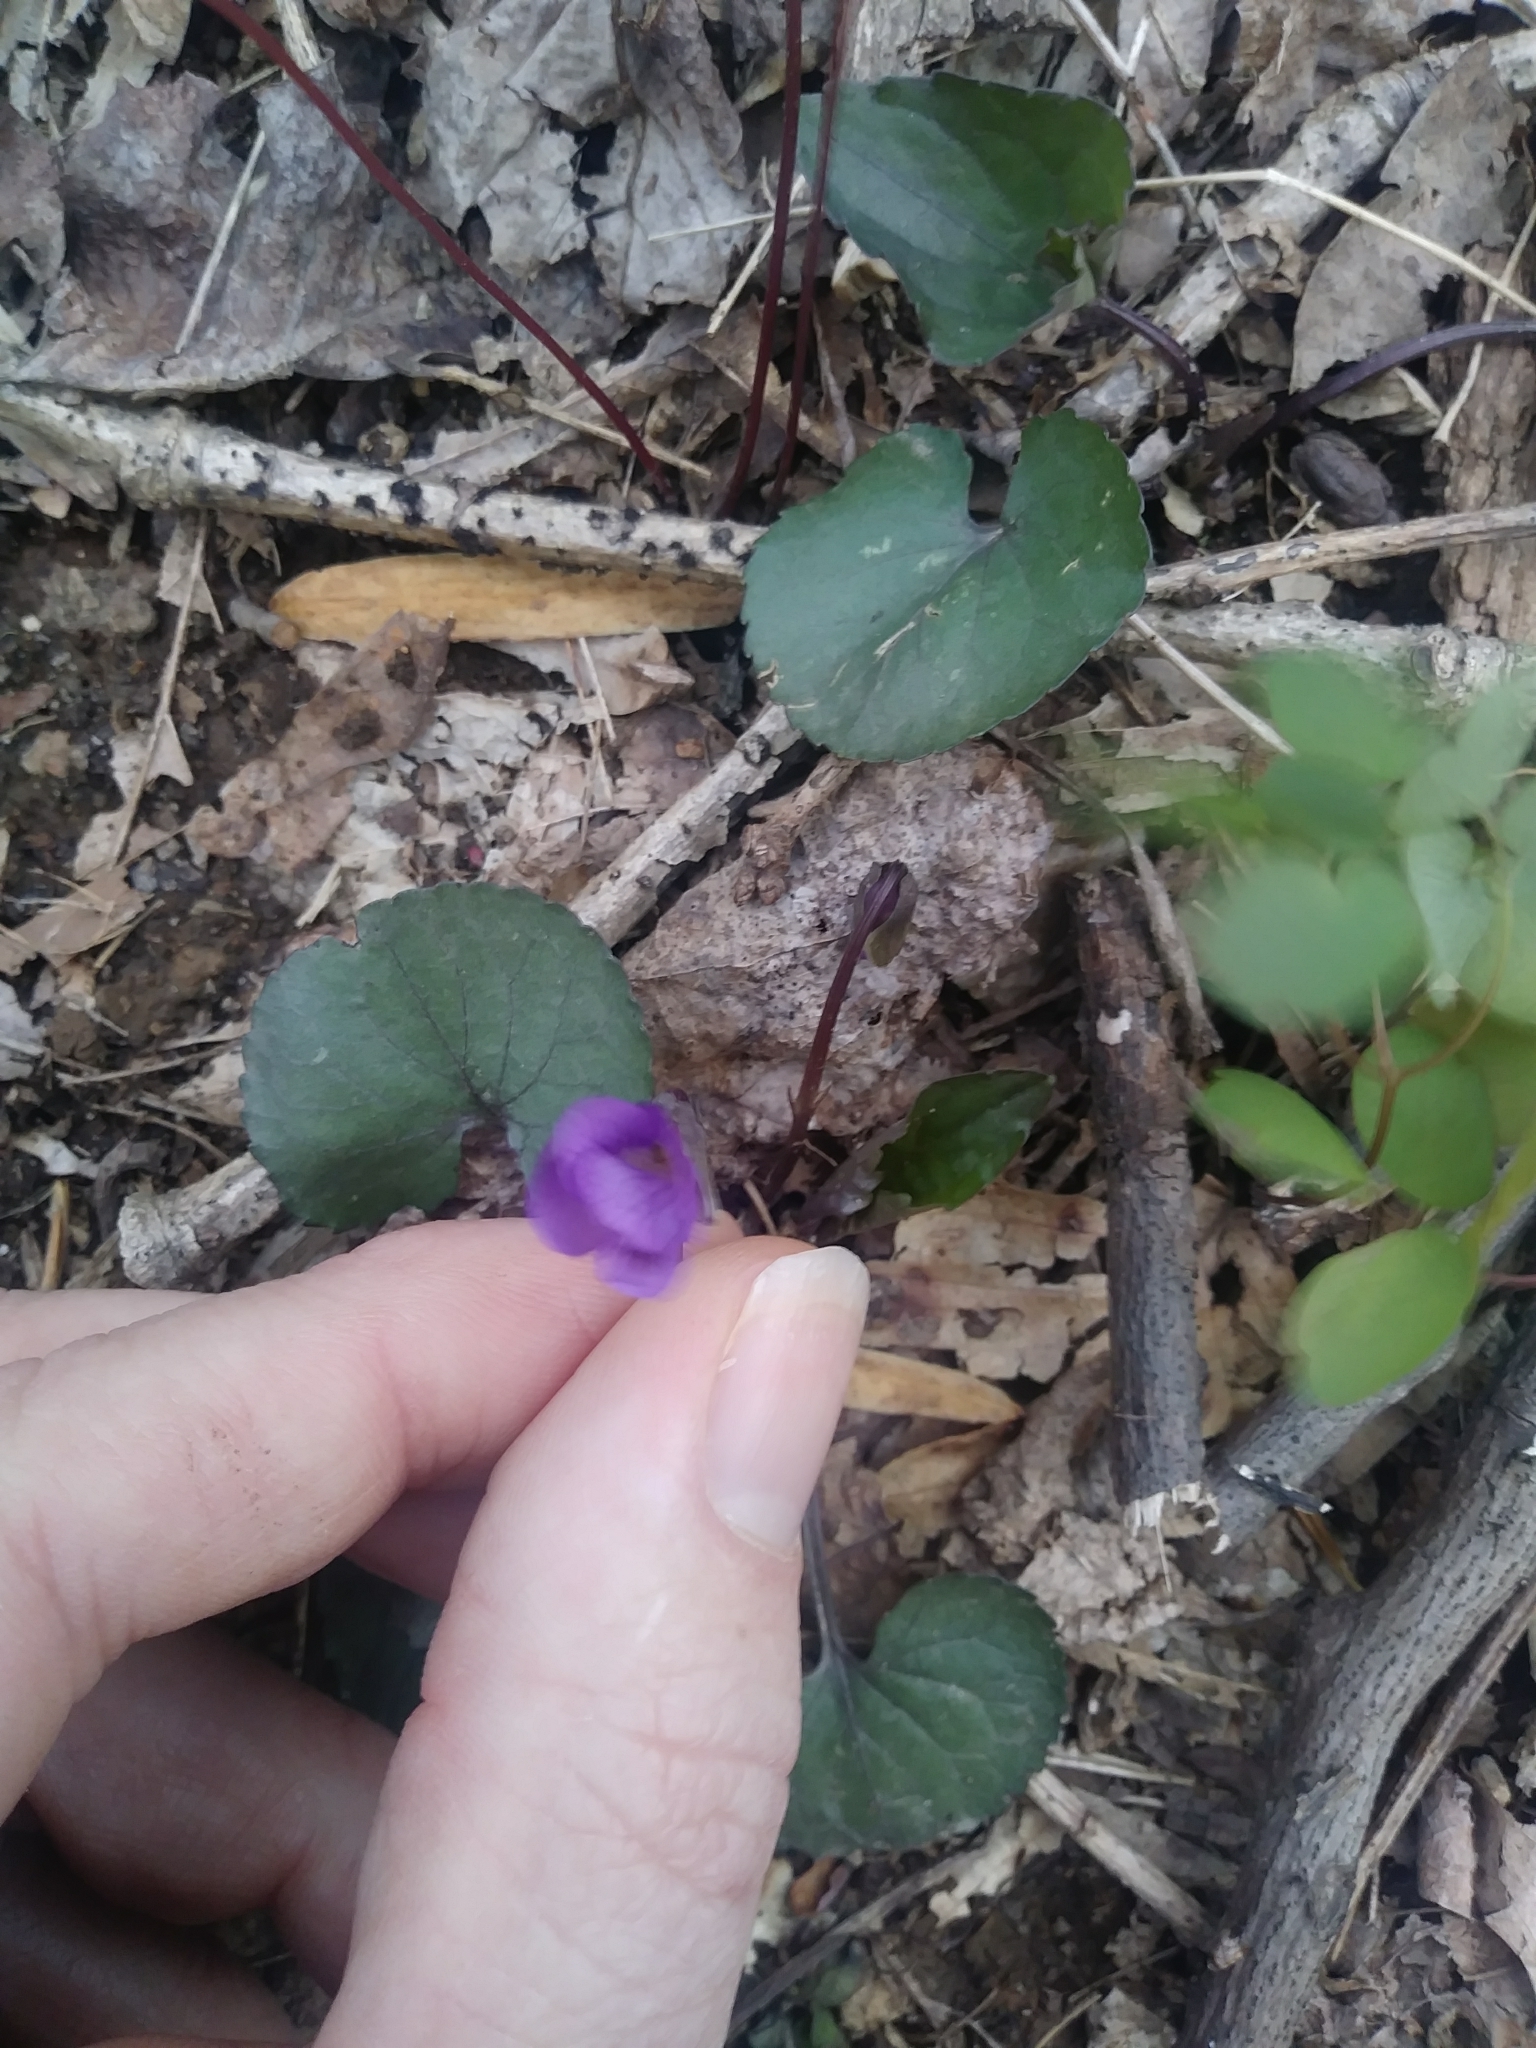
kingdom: Plantae
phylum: Tracheophyta
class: Magnoliopsida
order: Malpighiales
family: Violaceae
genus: Viola
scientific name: Viola sororia
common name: Dooryard violet
